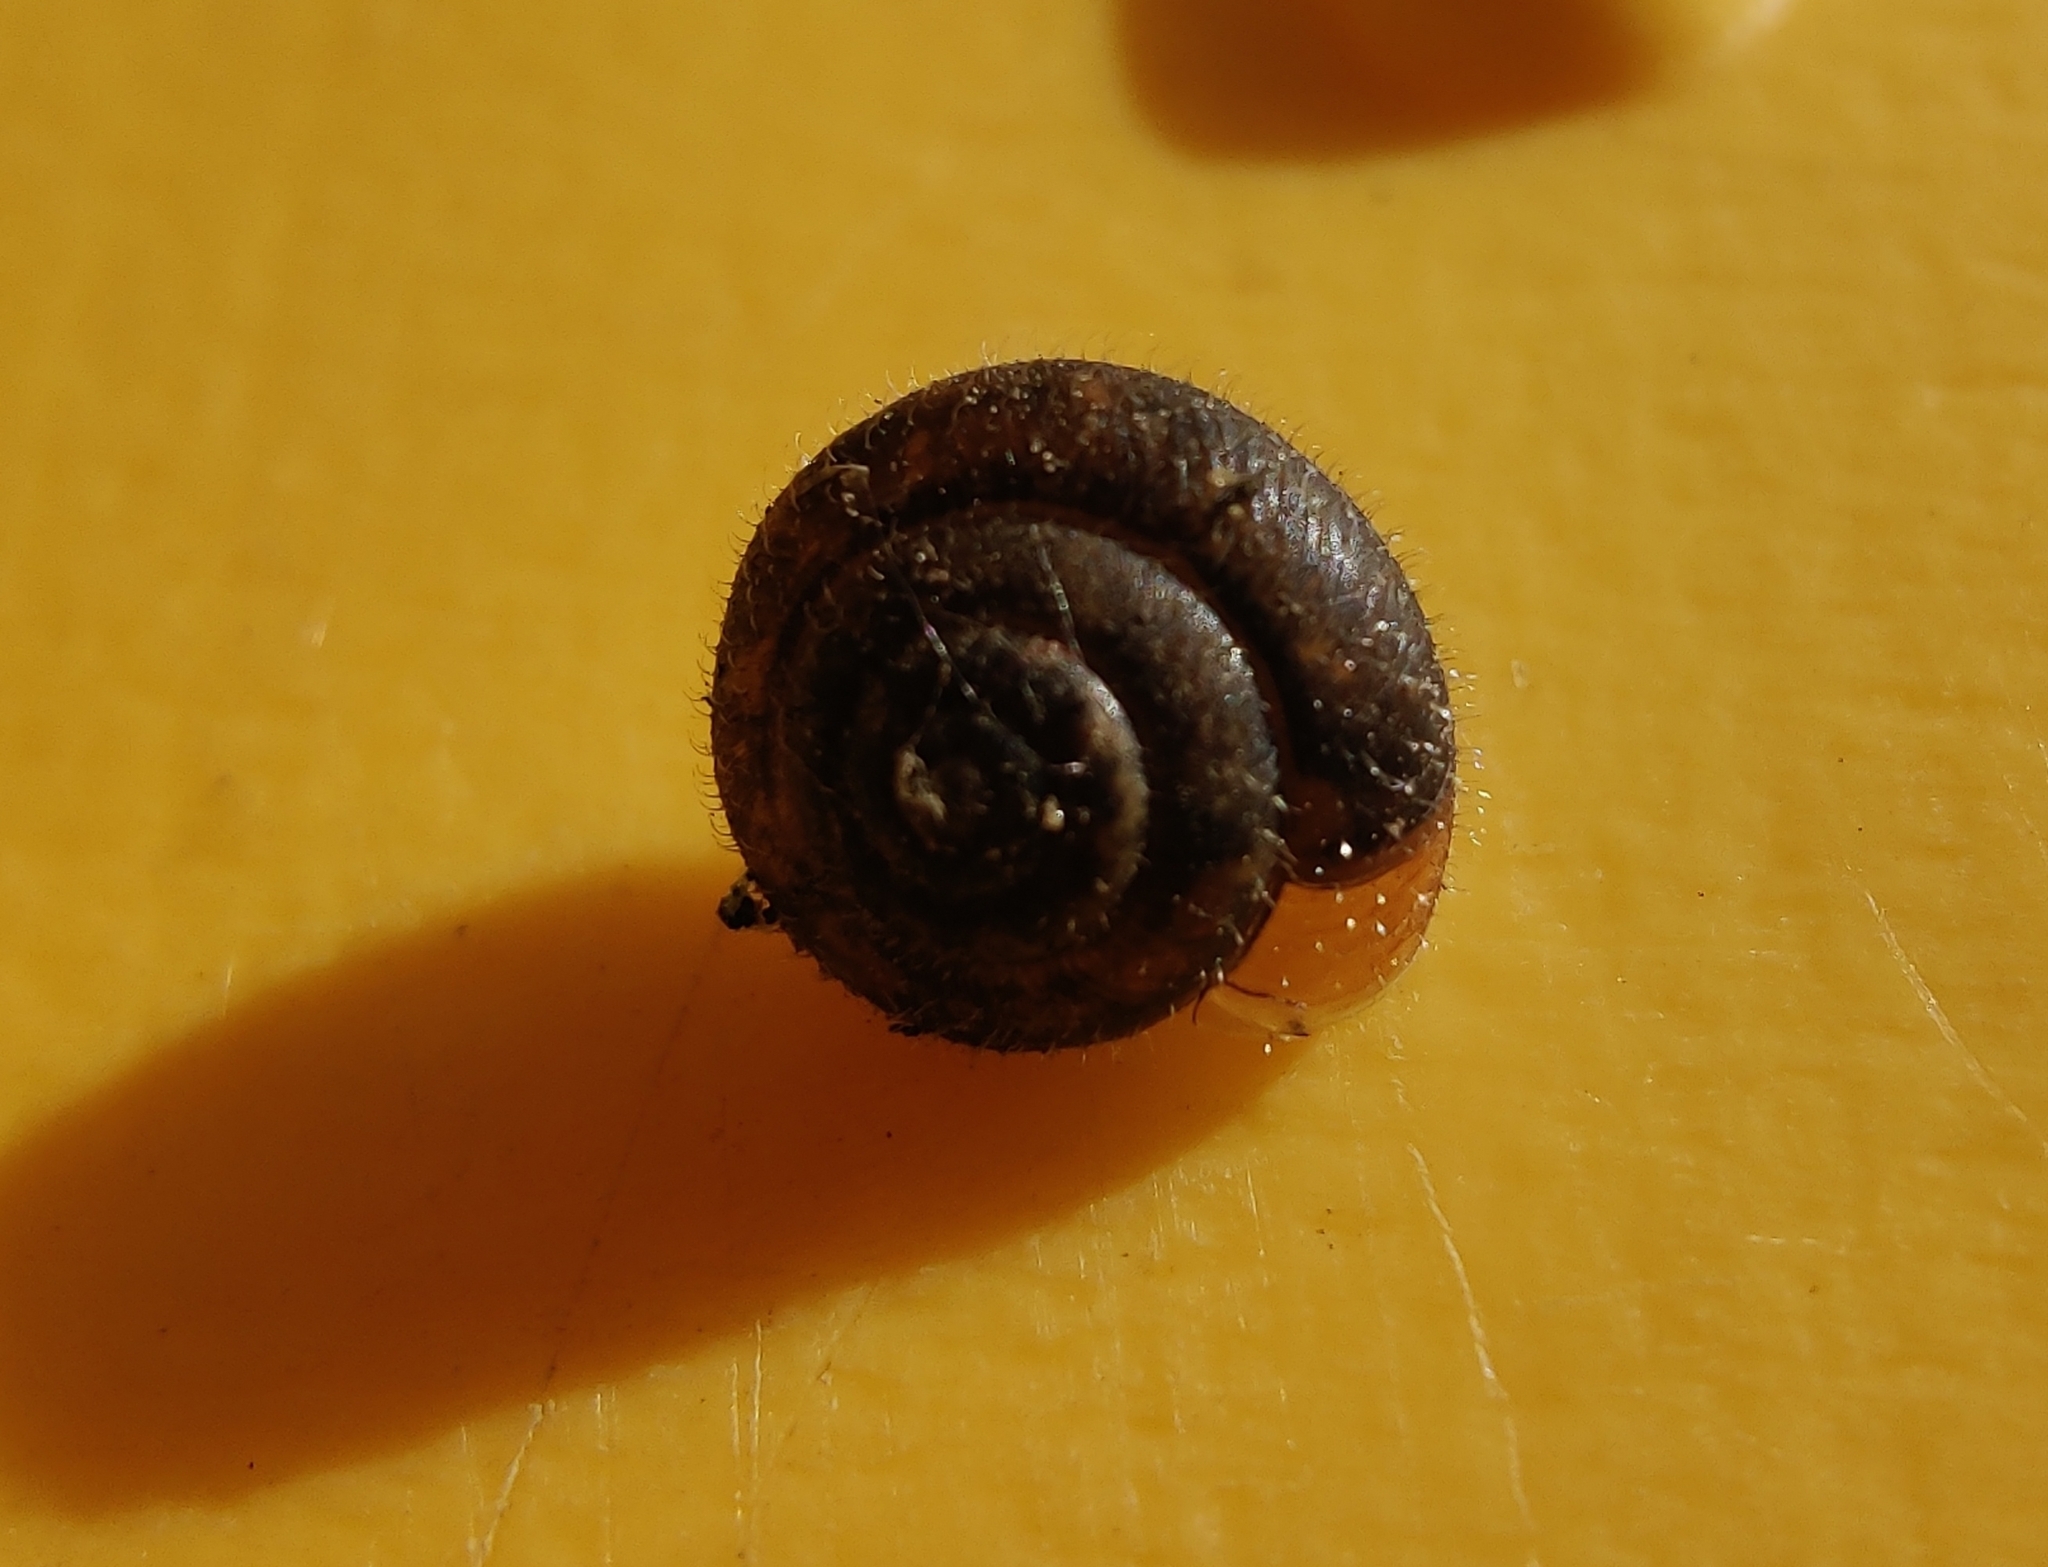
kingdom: Animalia
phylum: Mollusca
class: Gastropoda
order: Stylommatophora
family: Hygromiidae
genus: Trochulus
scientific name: Trochulus hispidus
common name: Hairy snail
